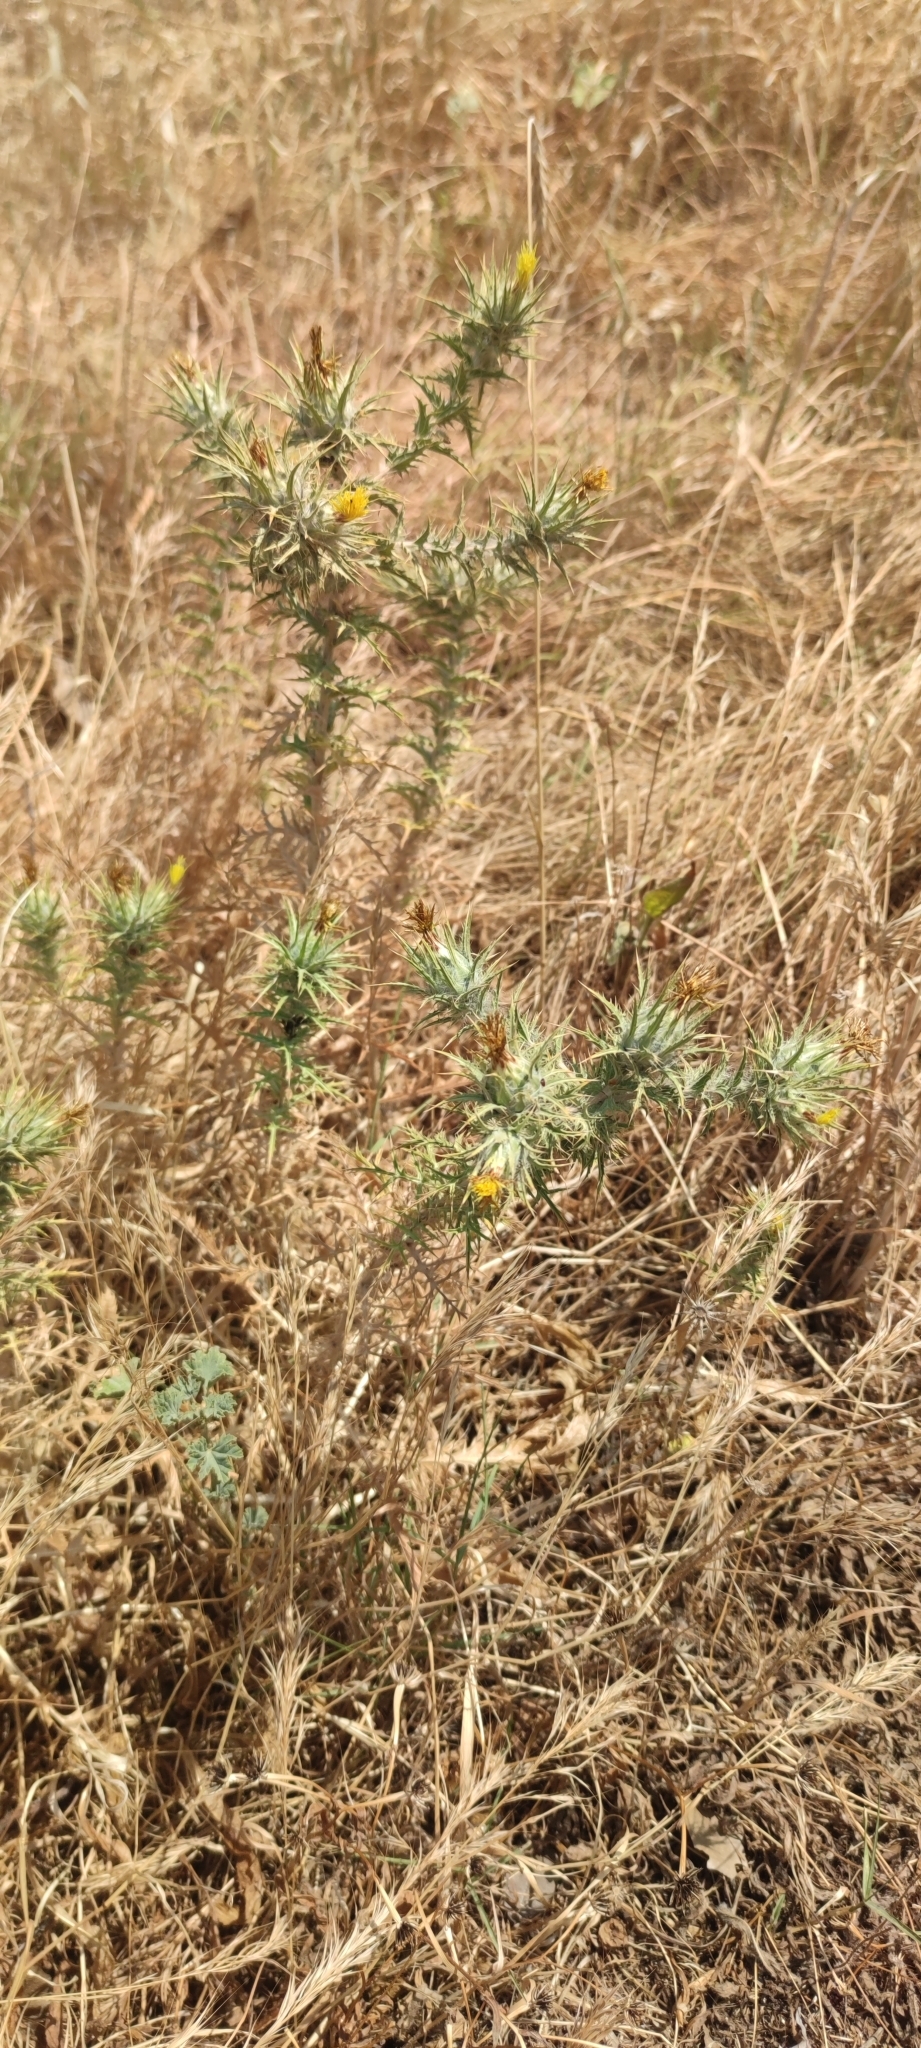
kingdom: Plantae
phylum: Tracheophyta
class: Magnoliopsida
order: Asterales
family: Asteraceae
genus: Carthamus
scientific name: Carthamus lanatus
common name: Downy safflower
